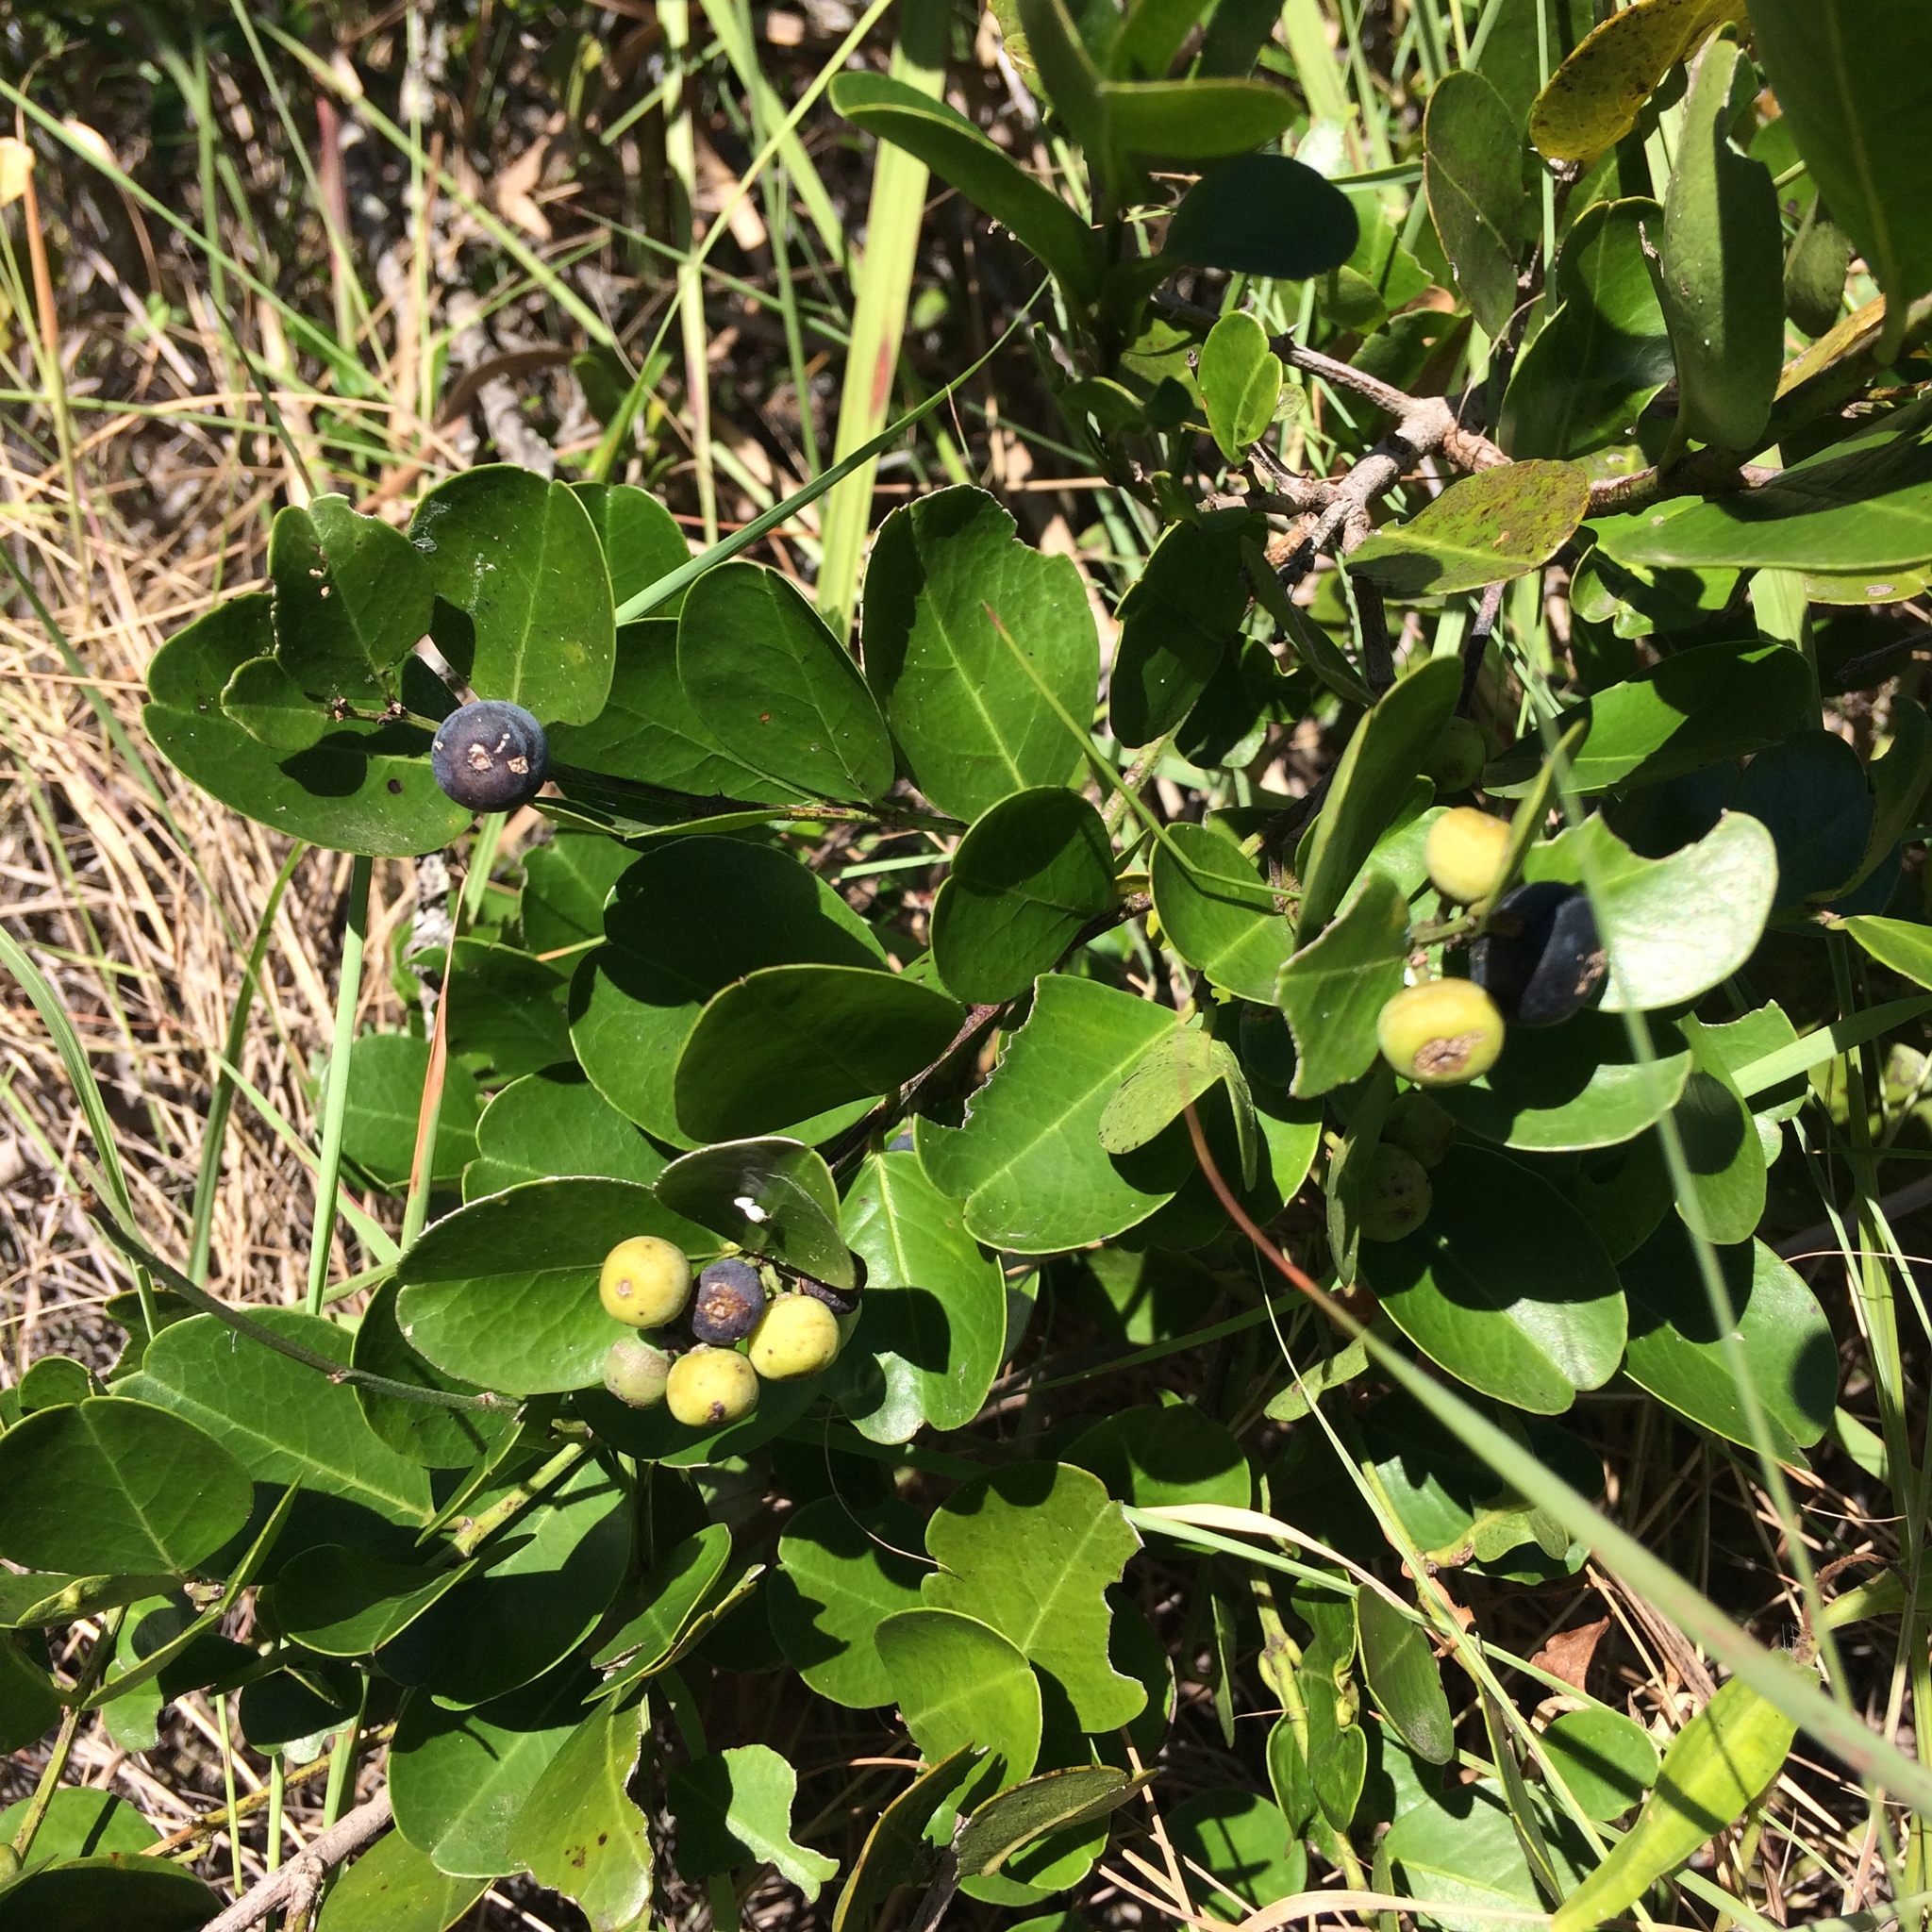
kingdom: Plantae
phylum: Tracheophyta
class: Magnoliopsida
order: Rosales
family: Rhamnaceae
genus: Scutia
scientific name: Scutia myrtina
